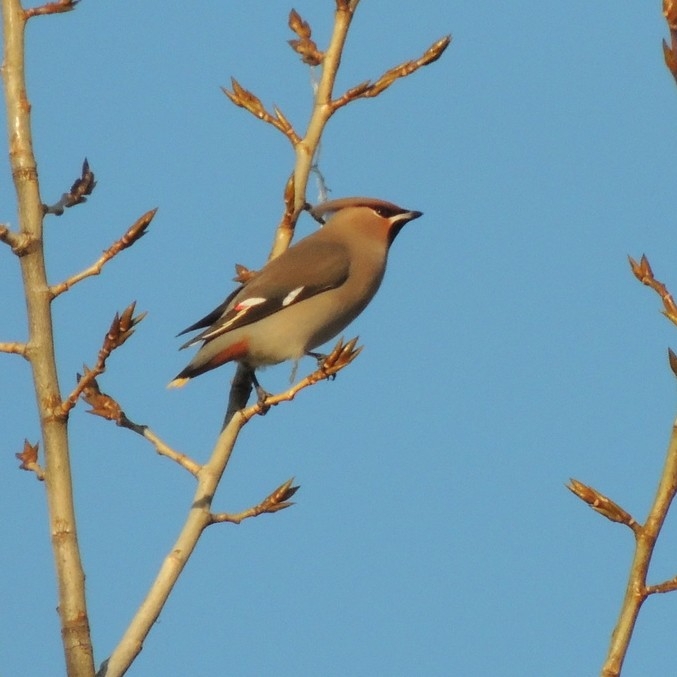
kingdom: Animalia
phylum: Chordata
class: Aves
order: Passeriformes
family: Bombycillidae
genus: Bombycilla
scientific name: Bombycilla garrulus
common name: Bohemian waxwing
